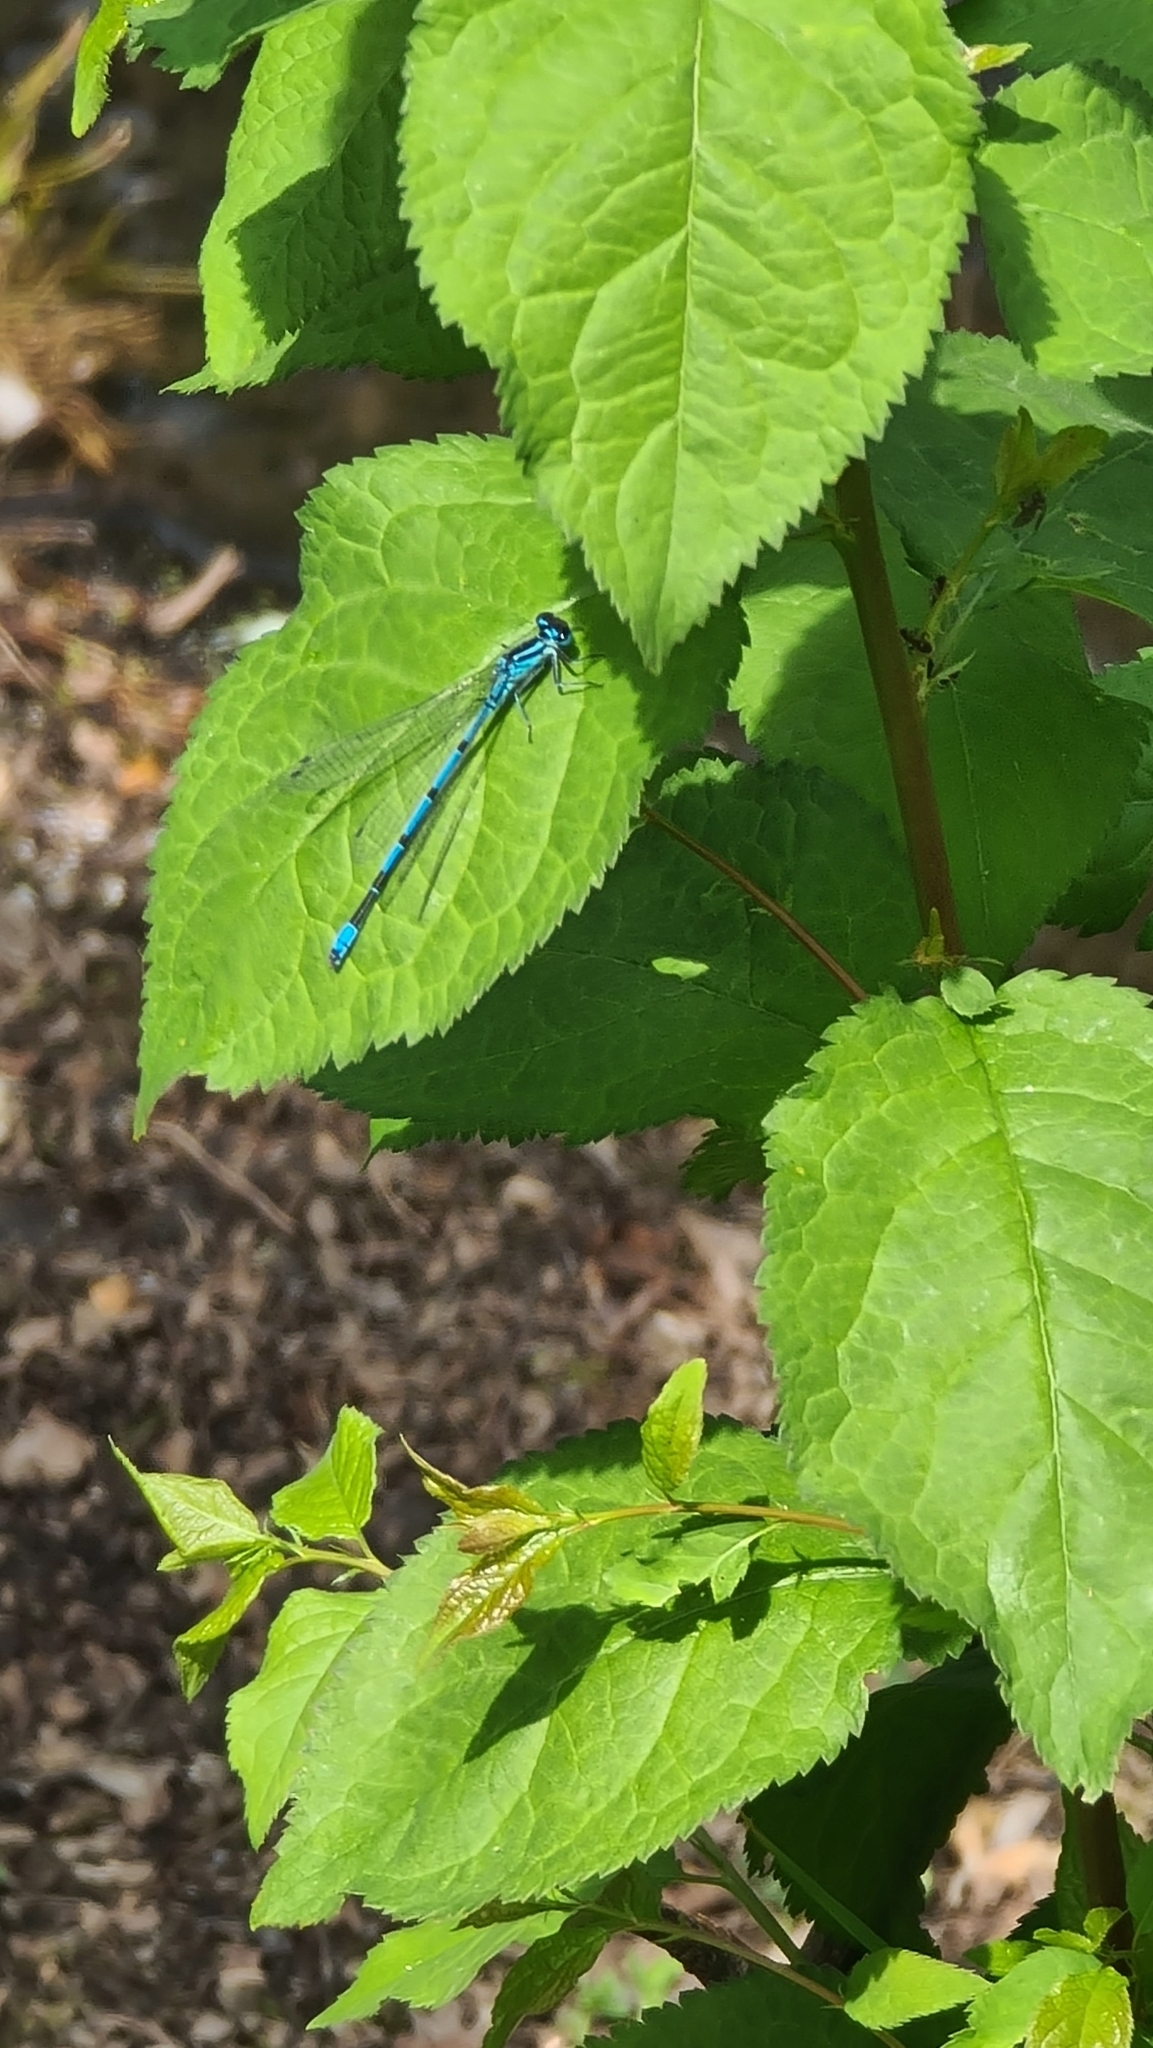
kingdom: Animalia
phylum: Arthropoda
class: Insecta
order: Odonata
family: Coenagrionidae
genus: Coenagrion
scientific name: Coenagrion puella
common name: Azure damselfly
